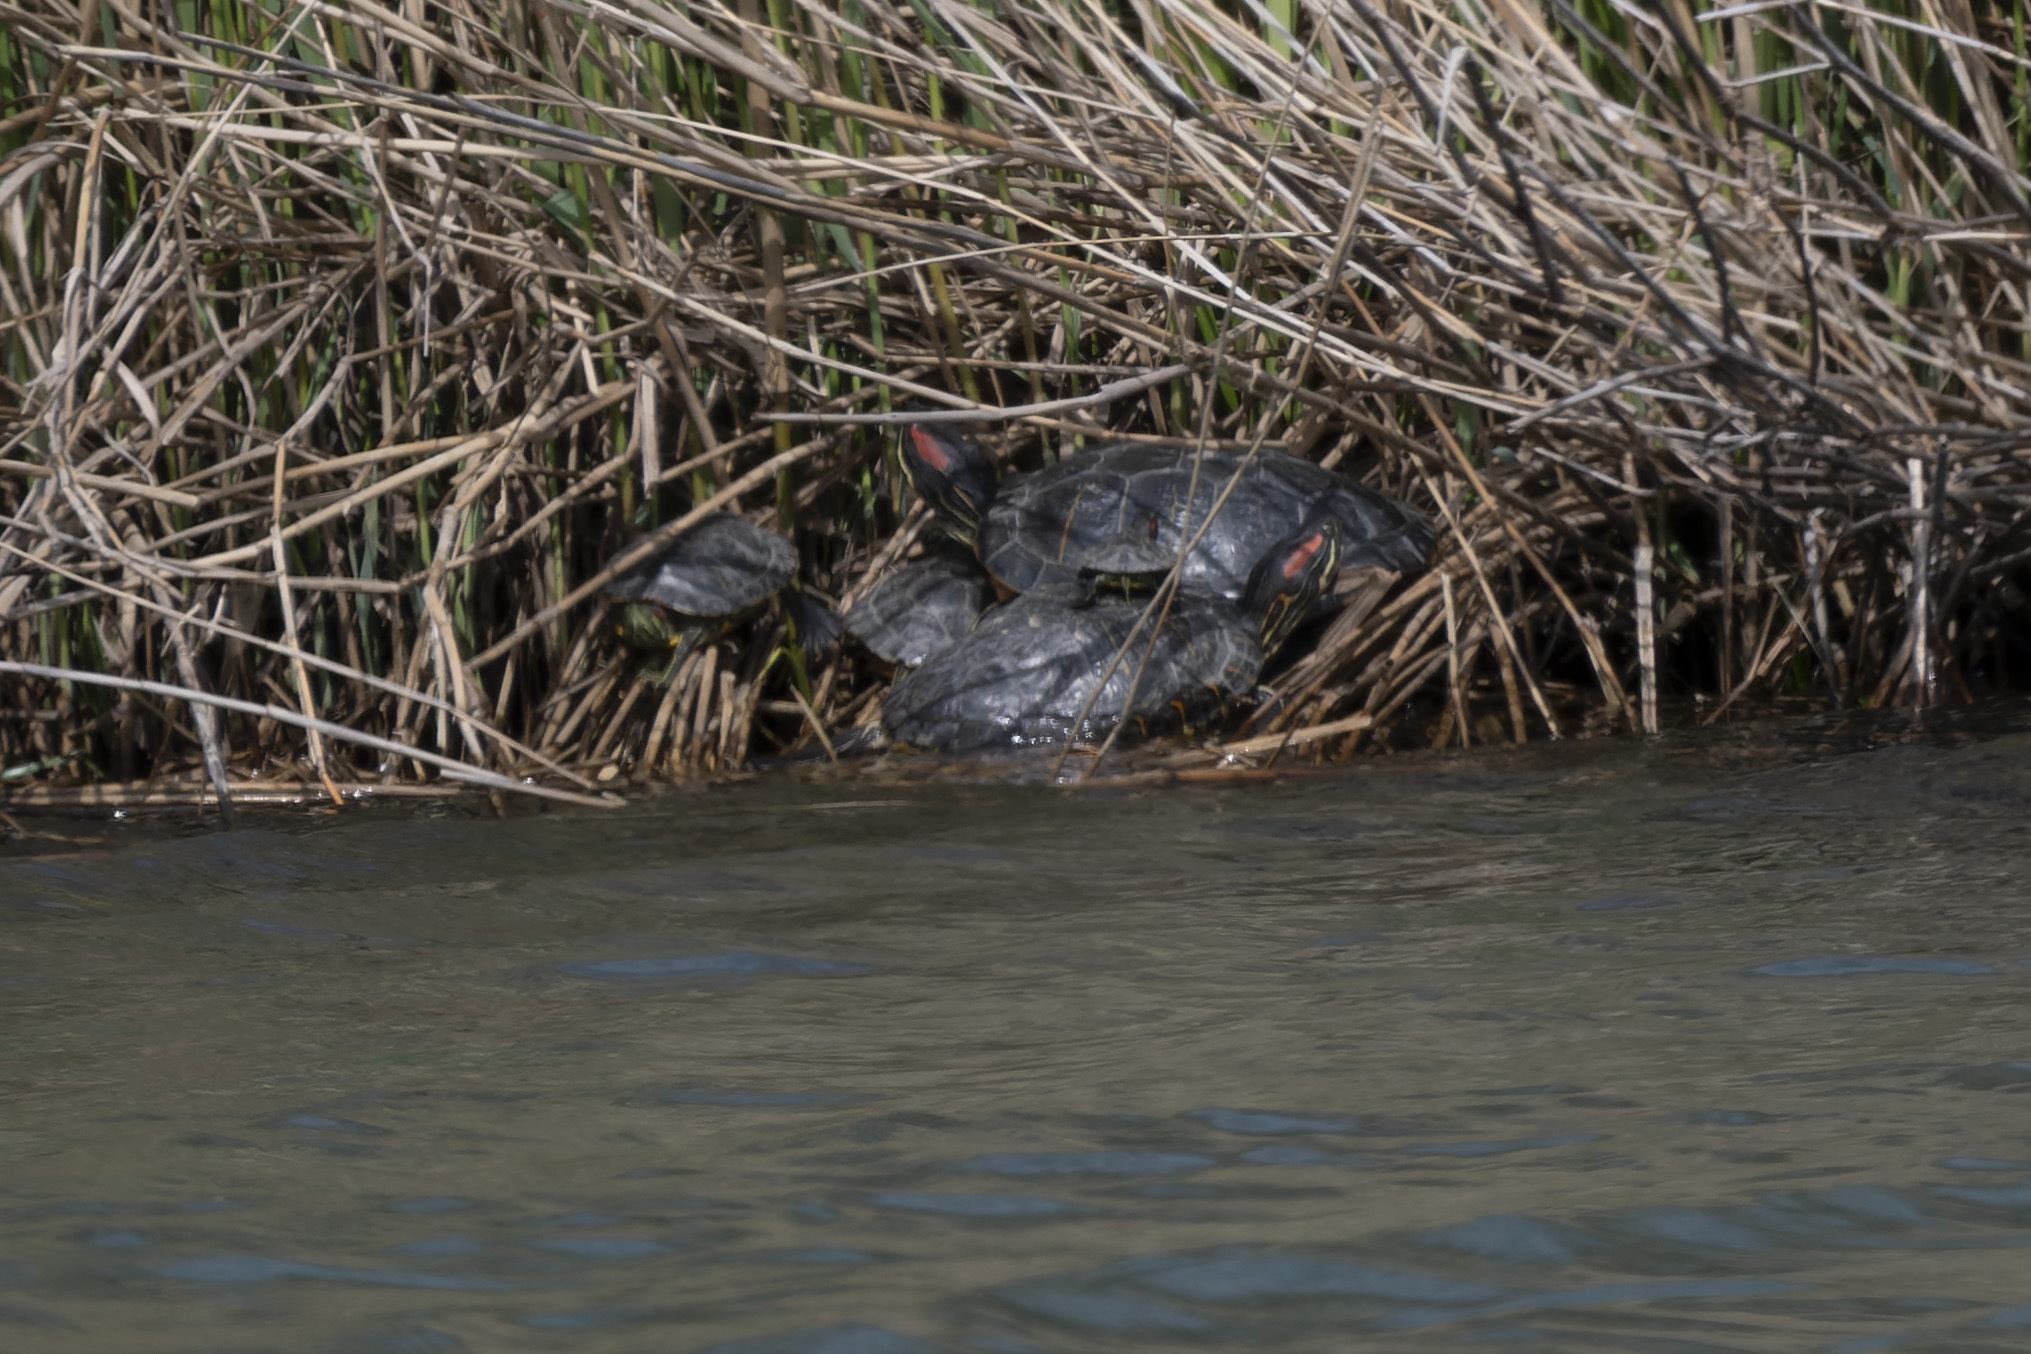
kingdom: Animalia
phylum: Chordata
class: Testudines
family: Emydidae
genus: Trachemys
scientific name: Trachemys scripta
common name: Slider
